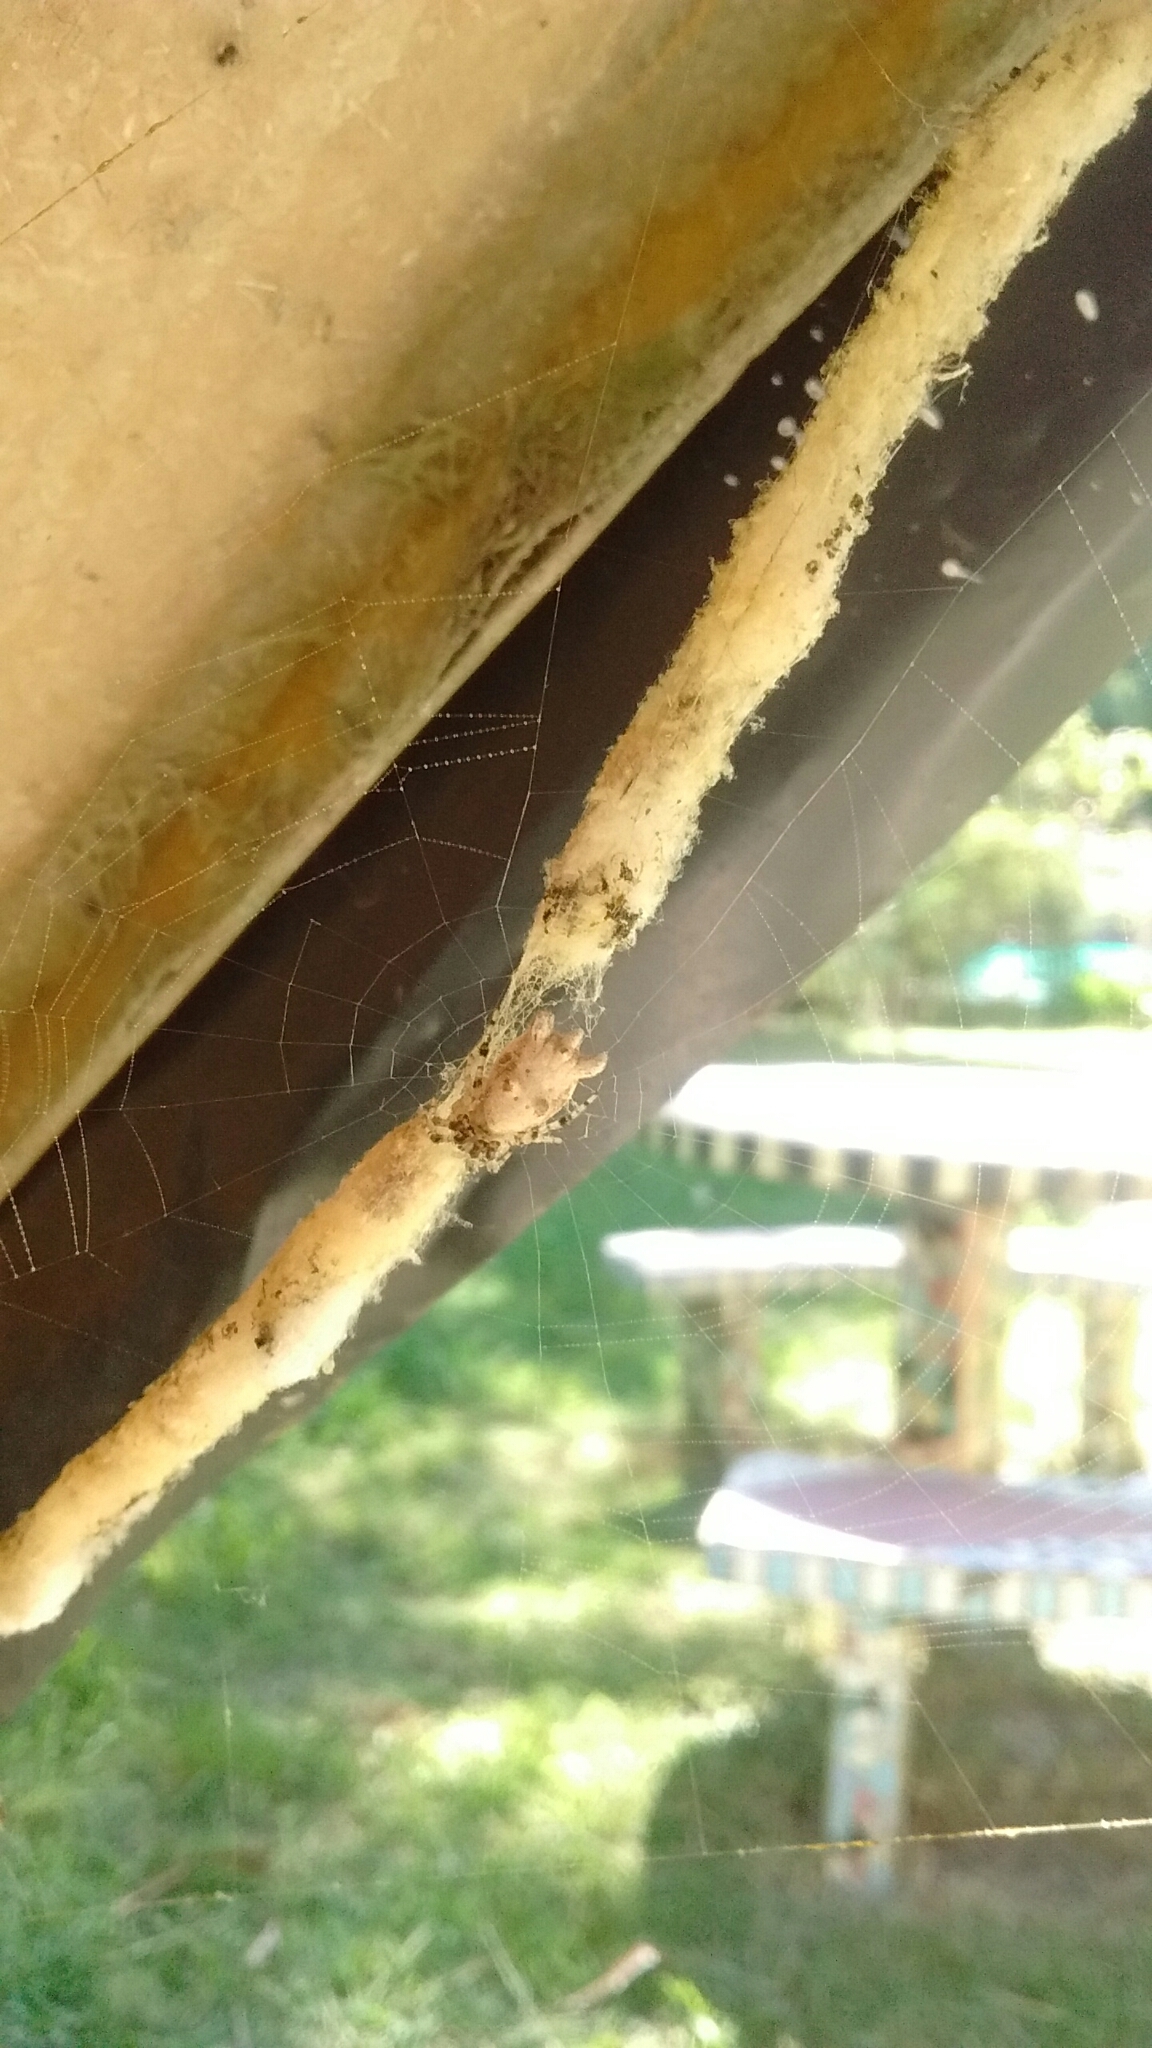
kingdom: Animalia
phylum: Arthropoda
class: Arachnida
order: Araneae
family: Araneidae
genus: Cyclosa
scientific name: Cyclosa diversa
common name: Orb weavers
